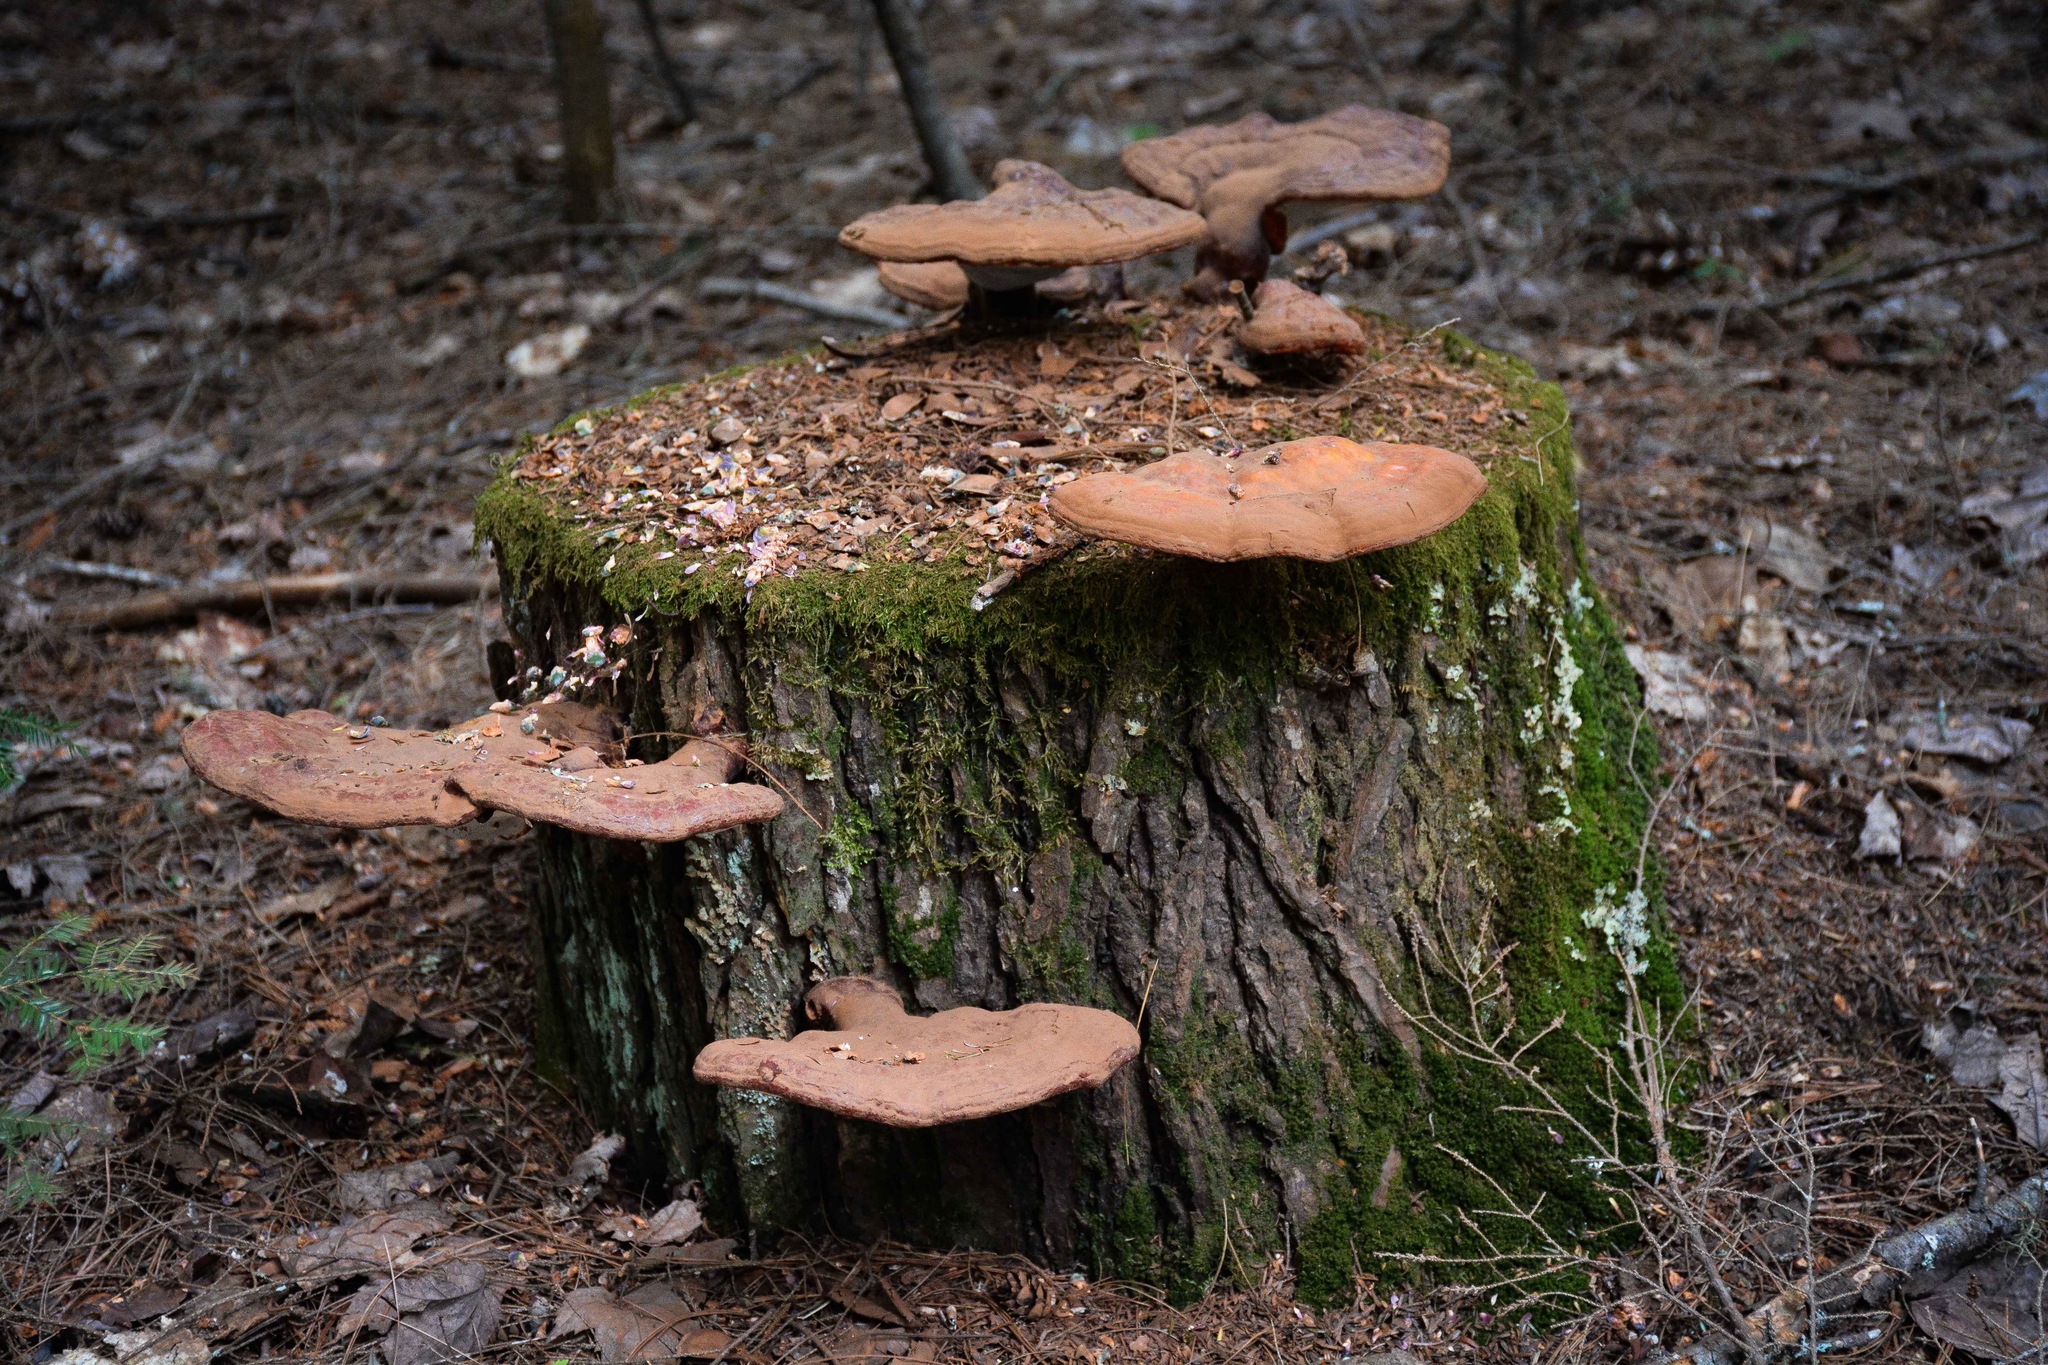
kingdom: Fungi
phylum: Basidiomycota
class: Agaricomycetes
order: Polyporales
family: Polyporaceae
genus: Ganoderma
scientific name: Ganoderma tsugae
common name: Hemlock varnish shelf
